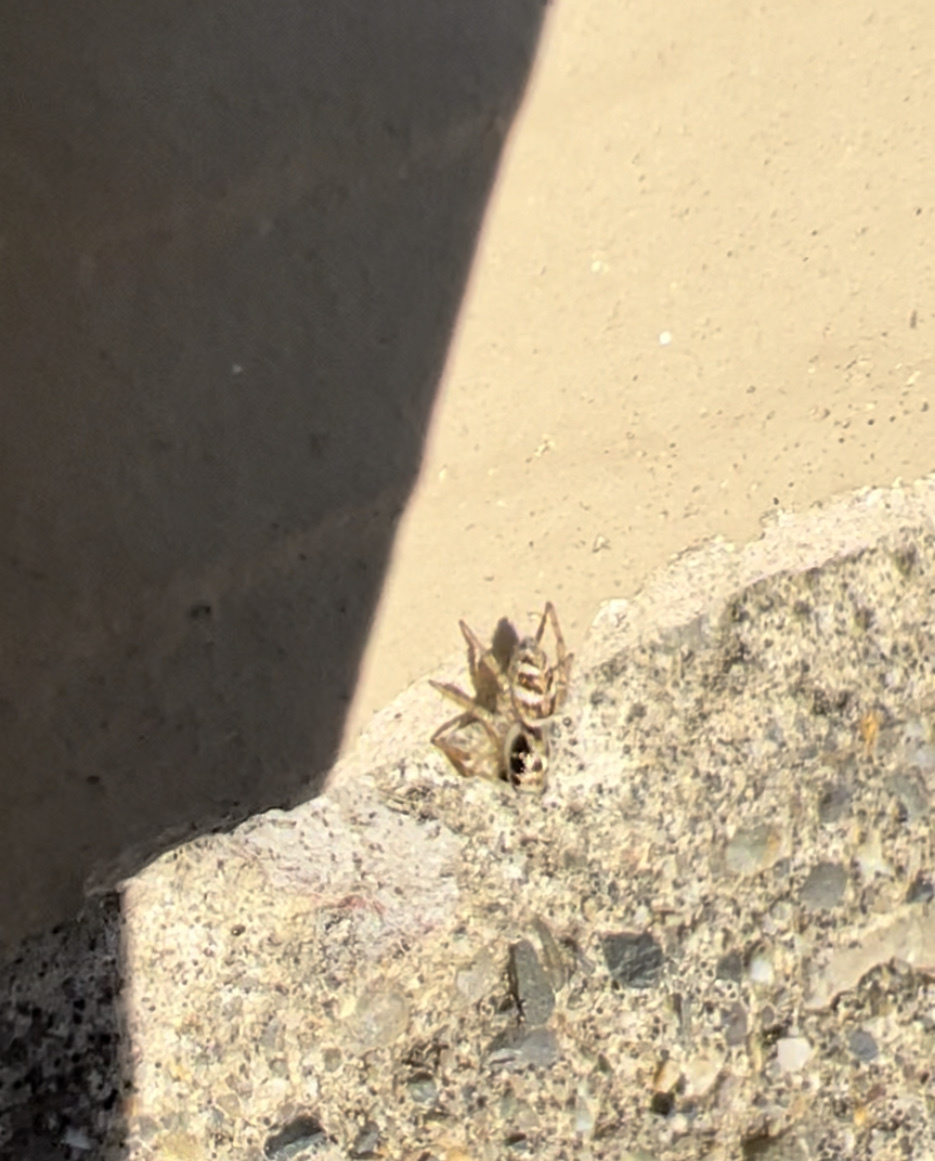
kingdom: Animalia
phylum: Arthropoda
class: Arachnida
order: Araneae
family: Salticidae
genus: Salticus
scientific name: Salticus scenicus
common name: Zebra jumper
